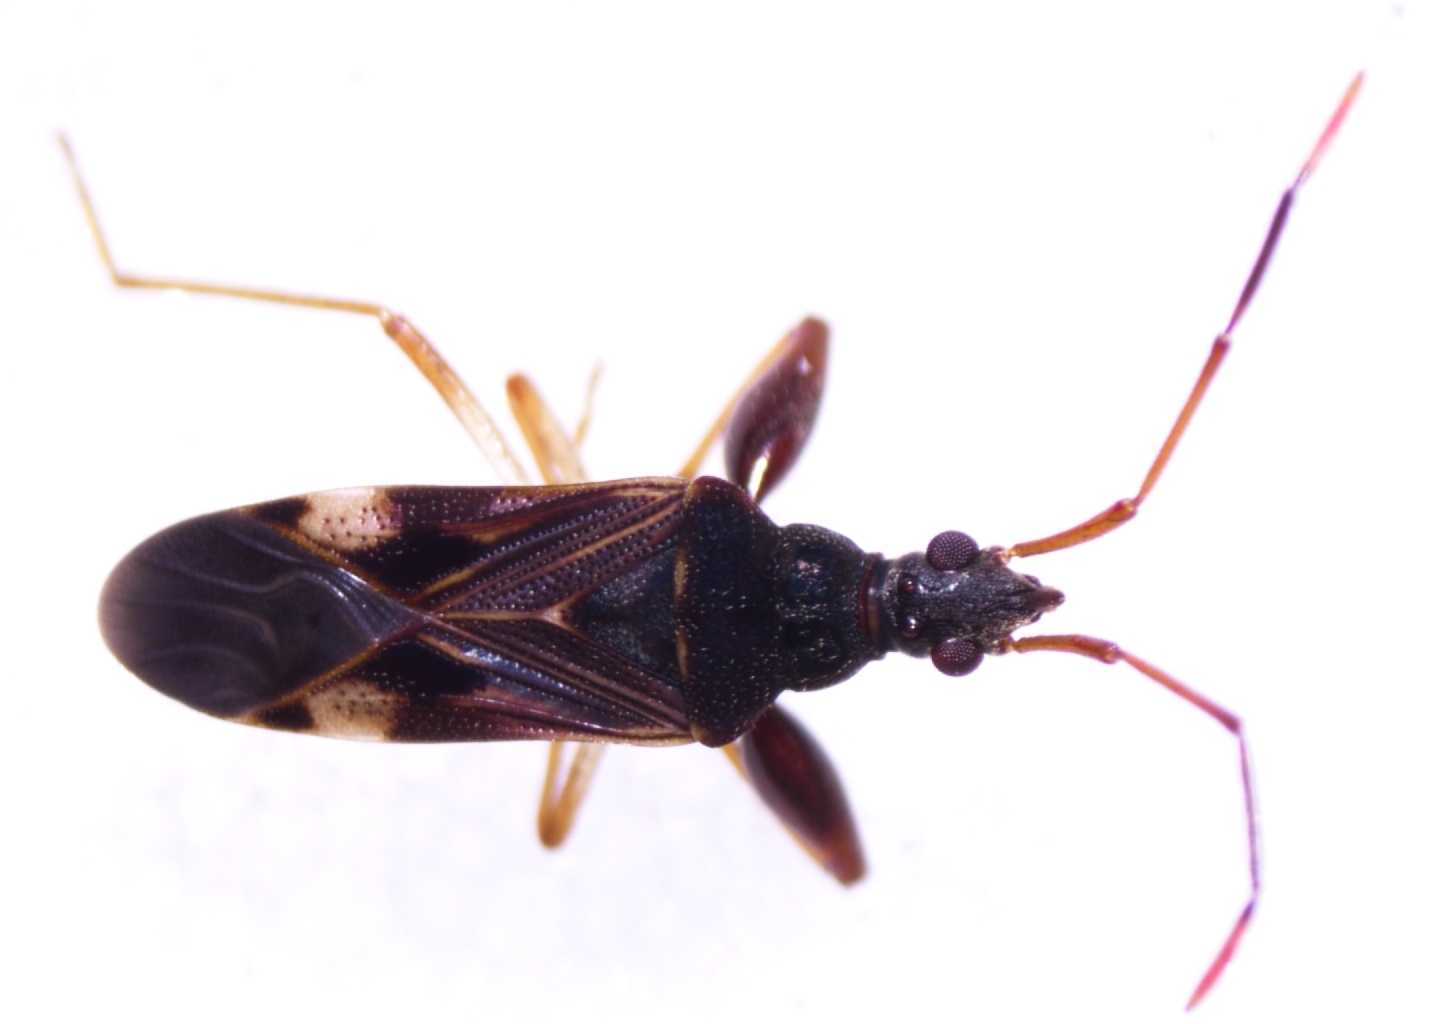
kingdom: Animalia
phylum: Arthropoda
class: Insecta
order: Hemiptera
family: Rhyparochromidae
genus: Bedunia
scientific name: Bedunia nesiotes
